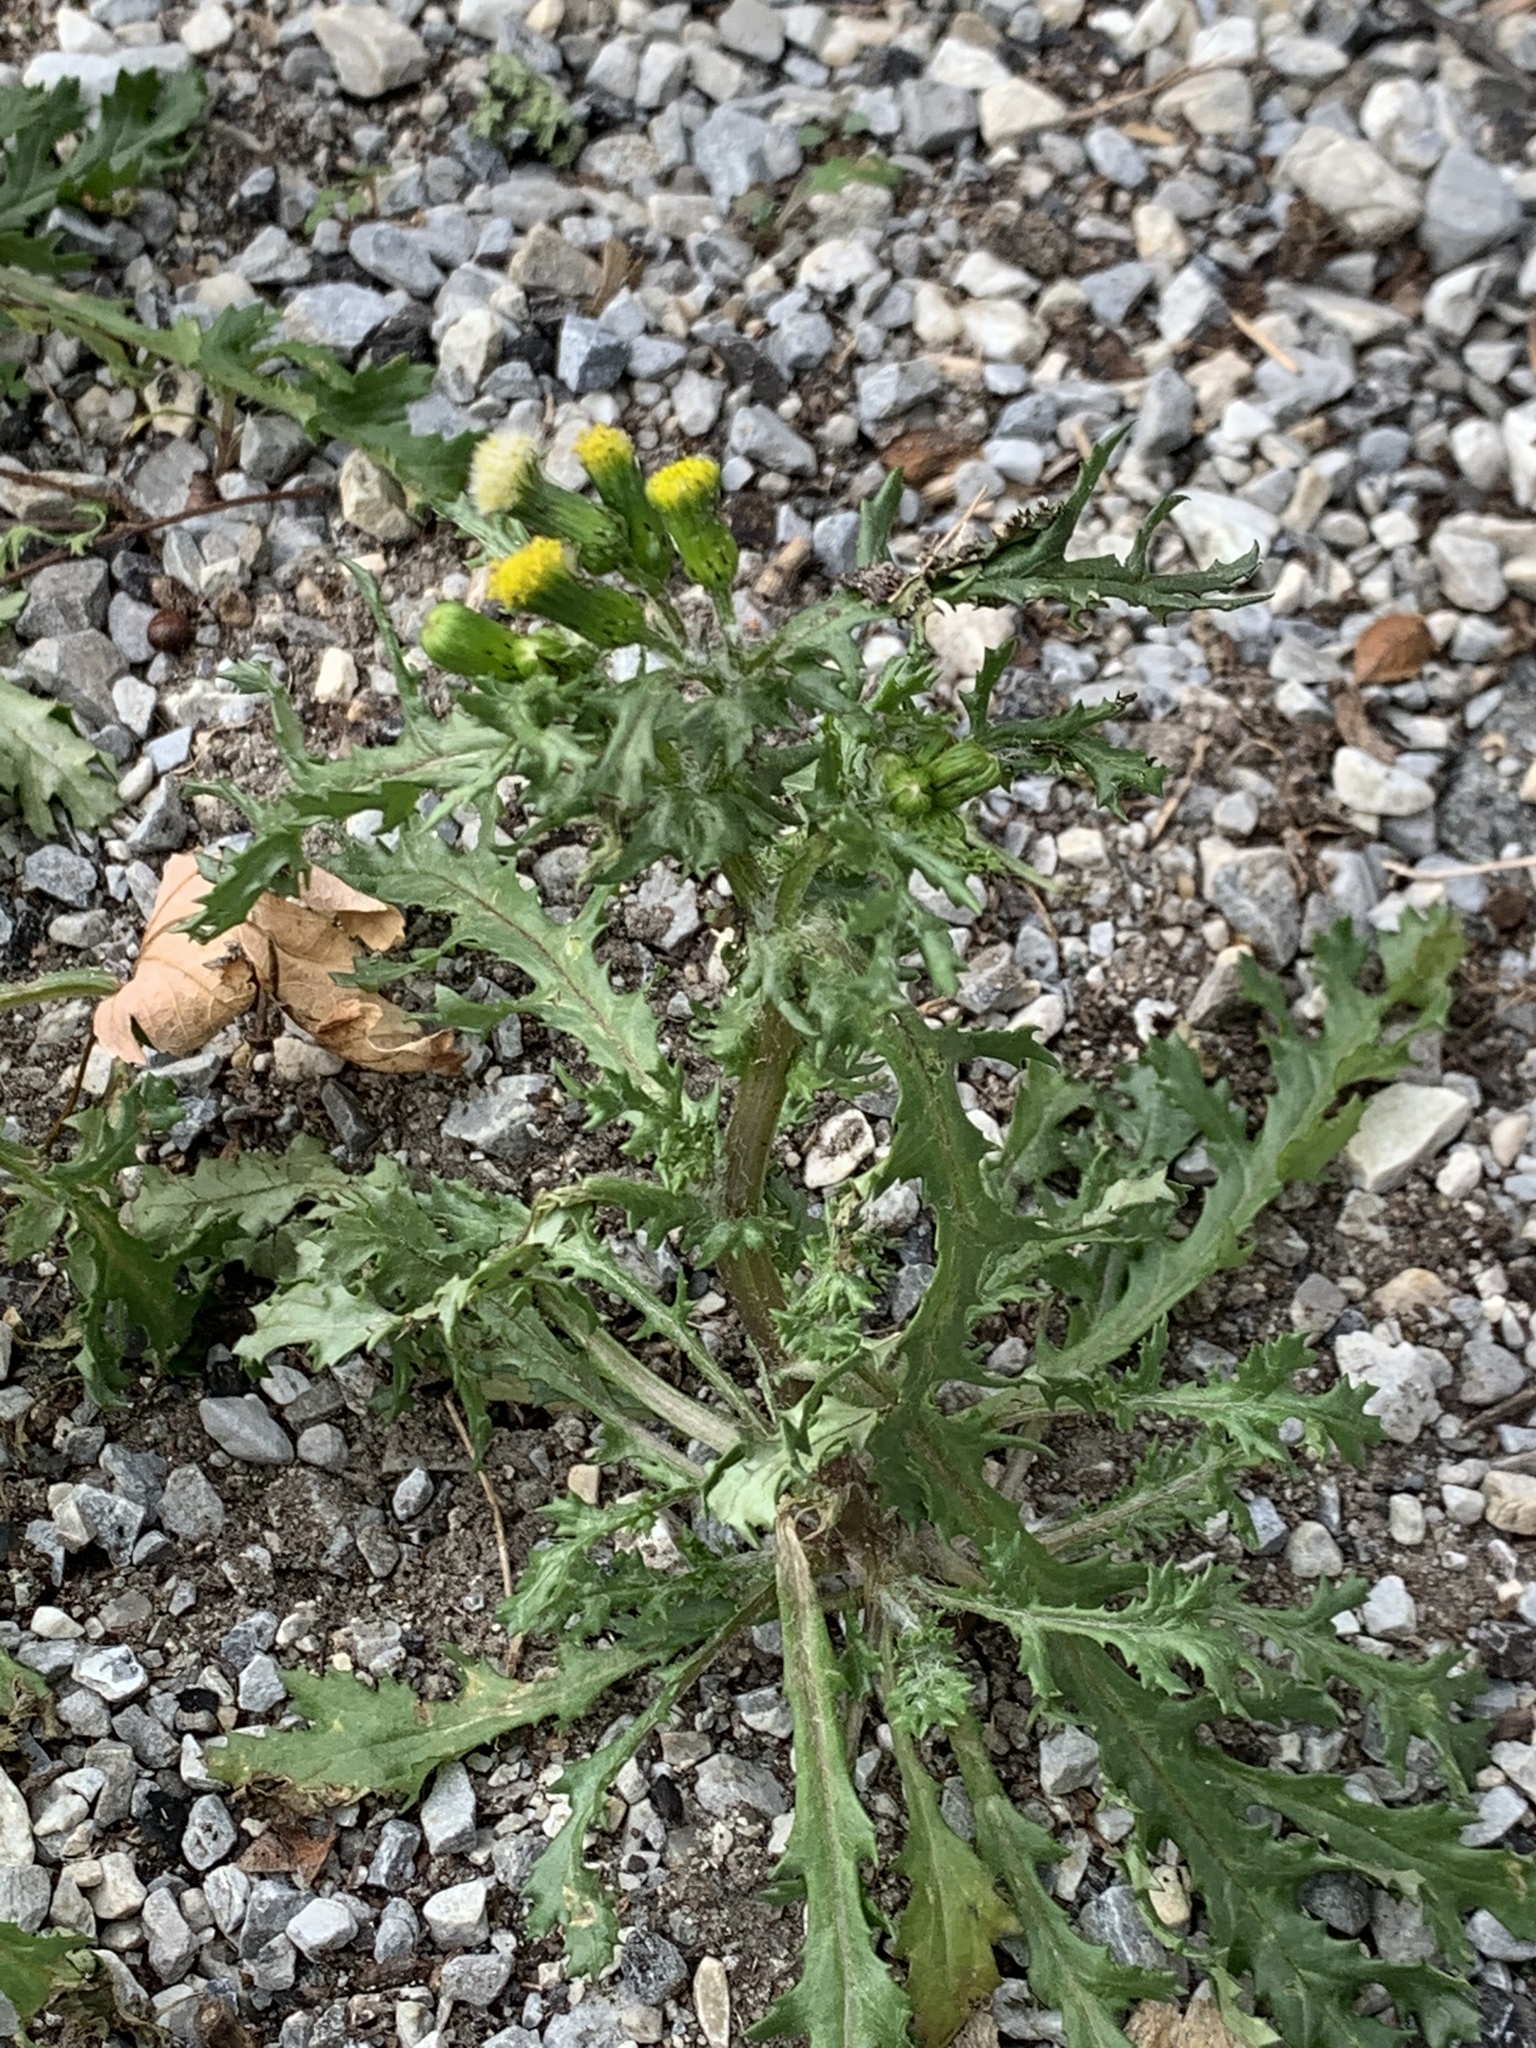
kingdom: Plantae
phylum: Tracheophyta
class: Magnoliopsida
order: Asterales
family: Asteraceae
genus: Senecio
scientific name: Senecio vulgaris
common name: Old-man-in-the-spring
